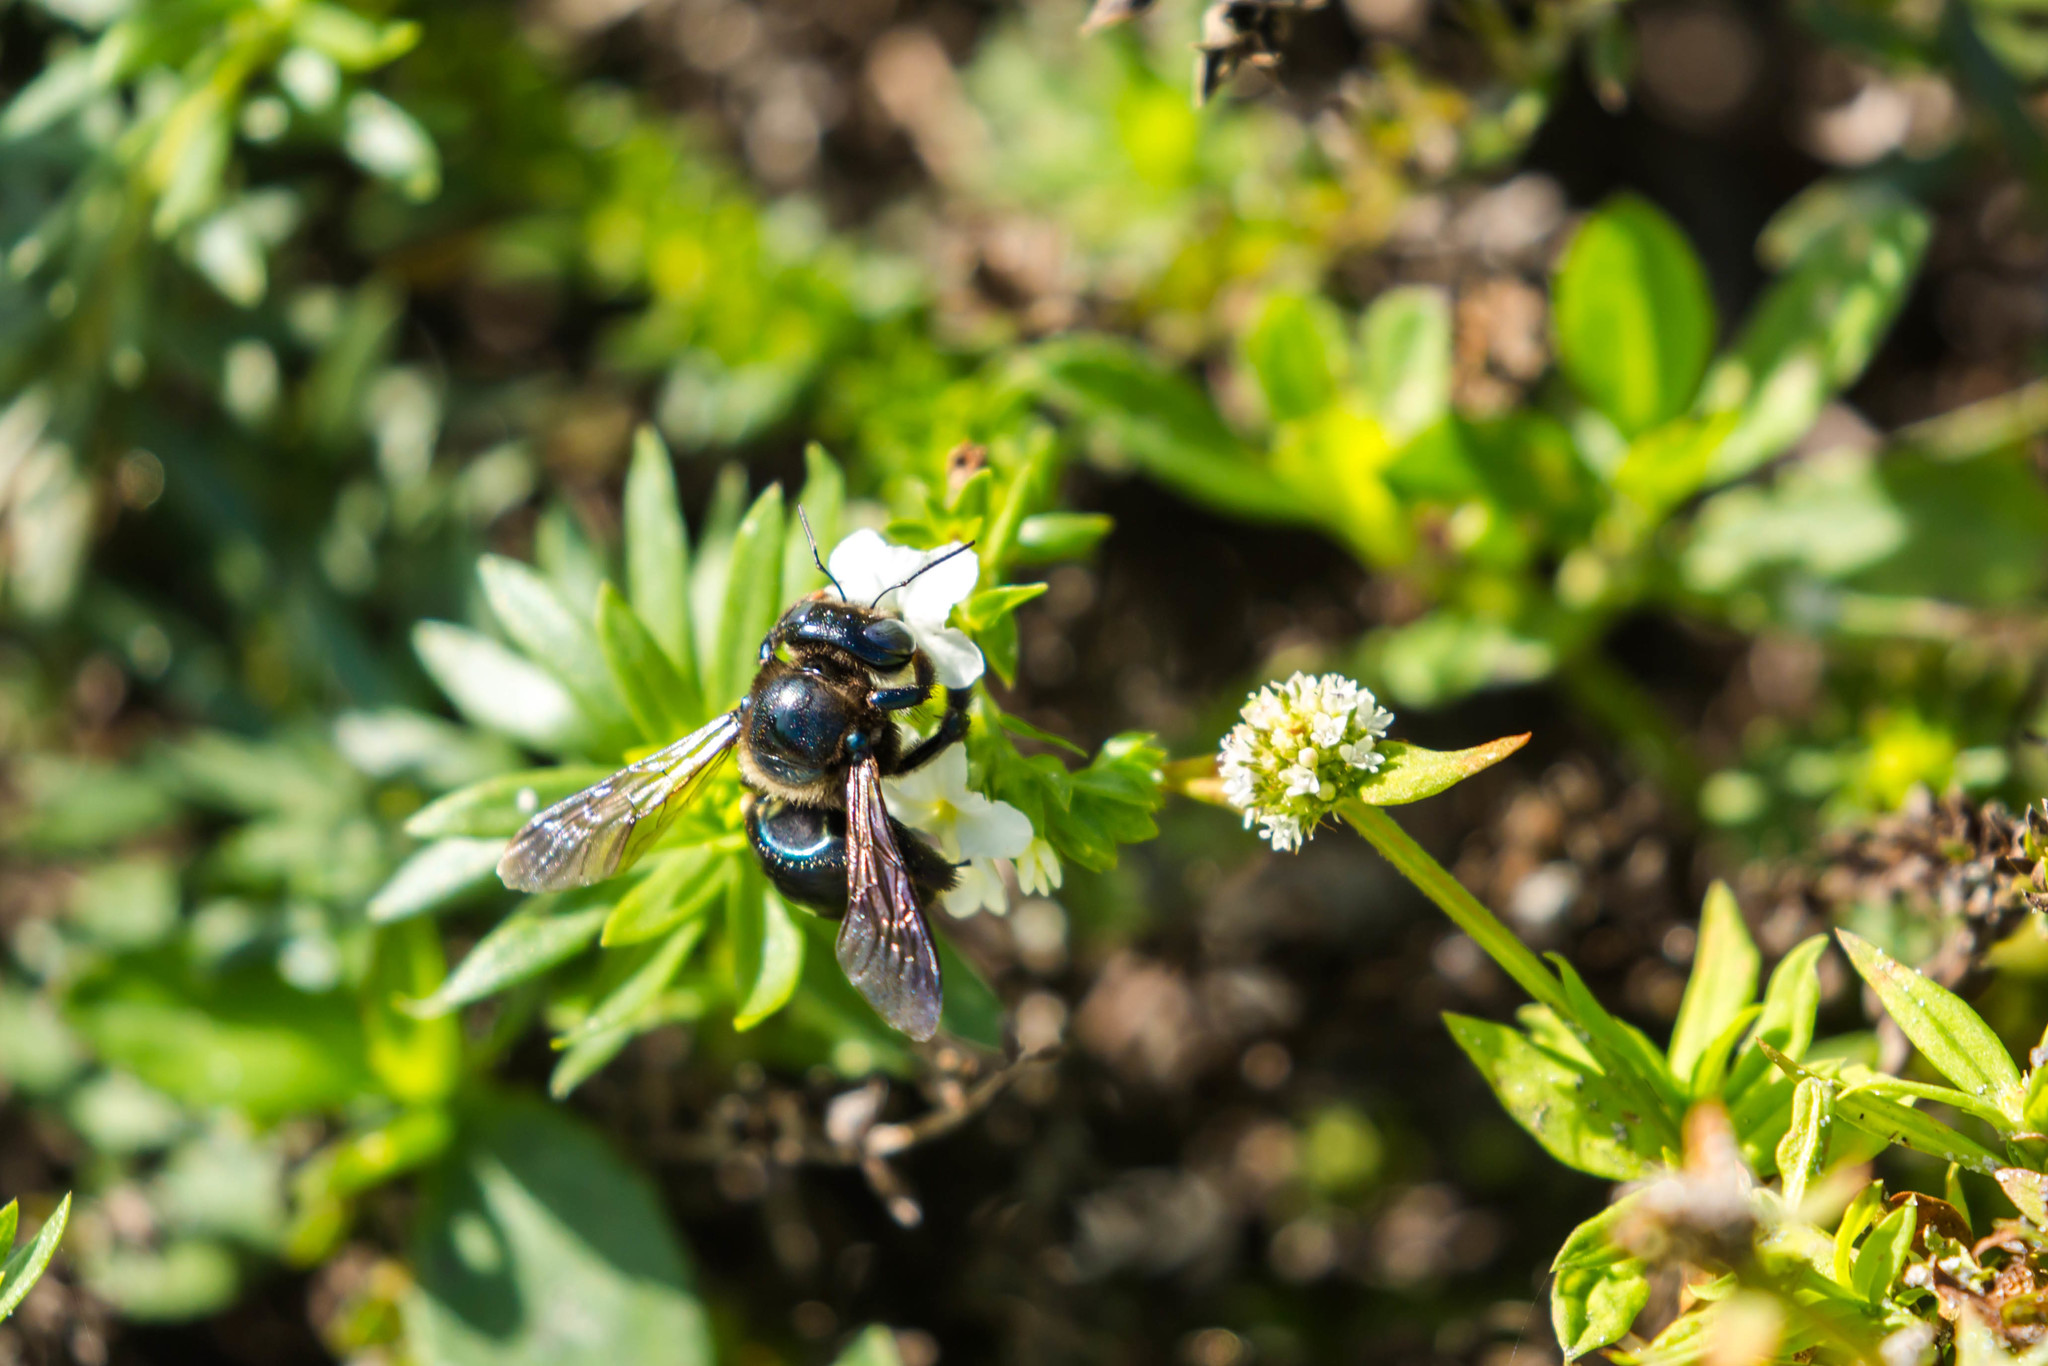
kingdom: Animalia
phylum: Arthropoda
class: Insecta
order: Hymenoptera
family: Apidae
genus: Xylocopa
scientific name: Xylocopa micans
